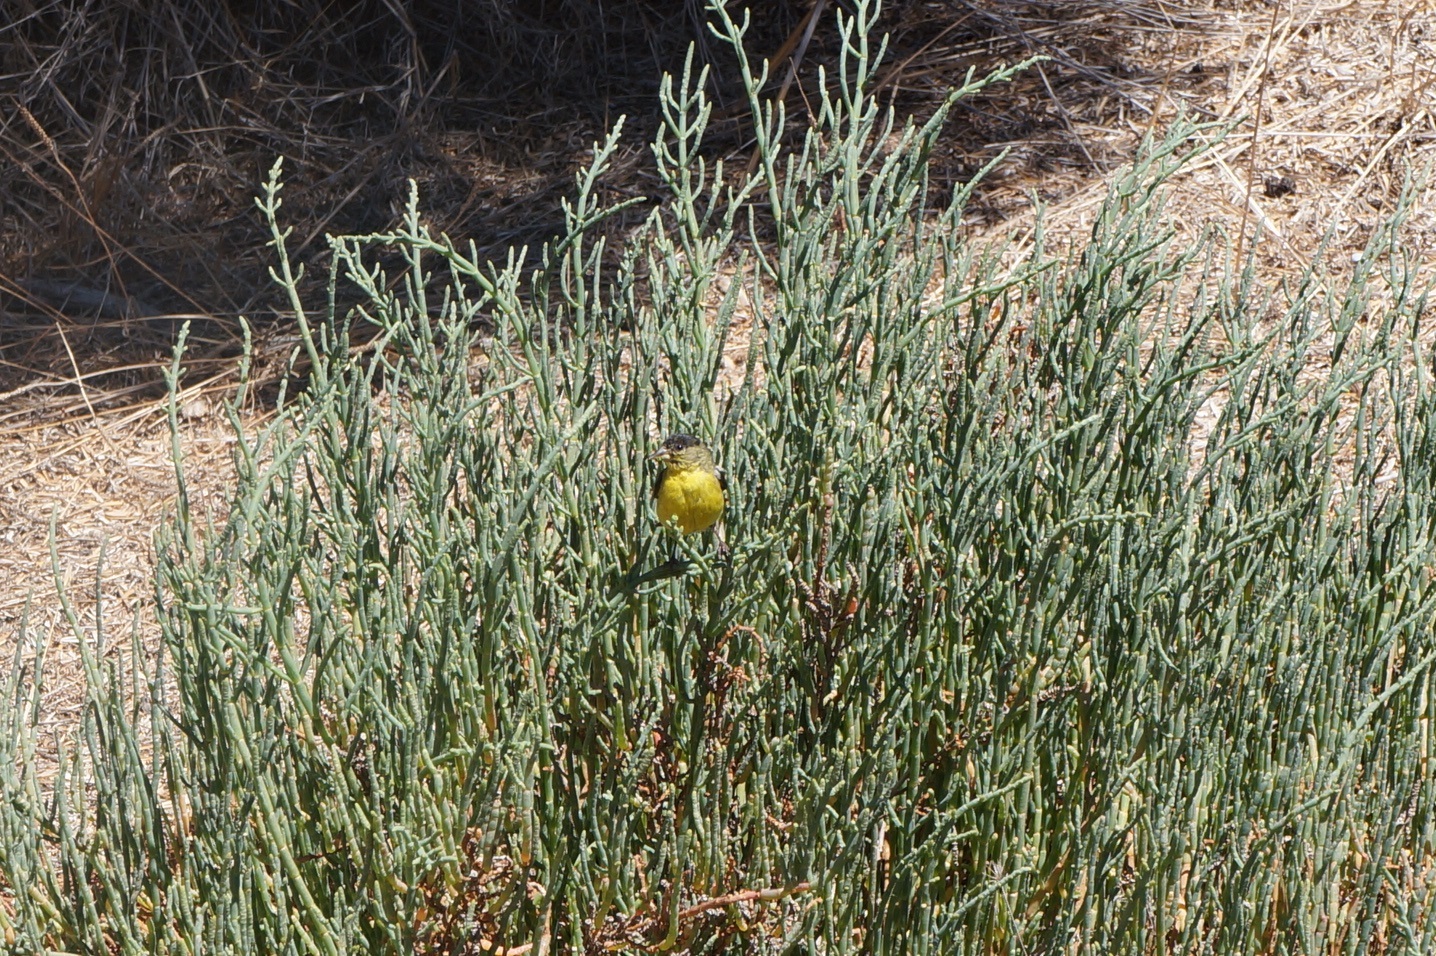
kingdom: Animalia
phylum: Chordata
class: Aves
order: Passeriformes
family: Fringillidae
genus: Spinus
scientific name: Spinus psaltria
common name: Lesser goldfinch
